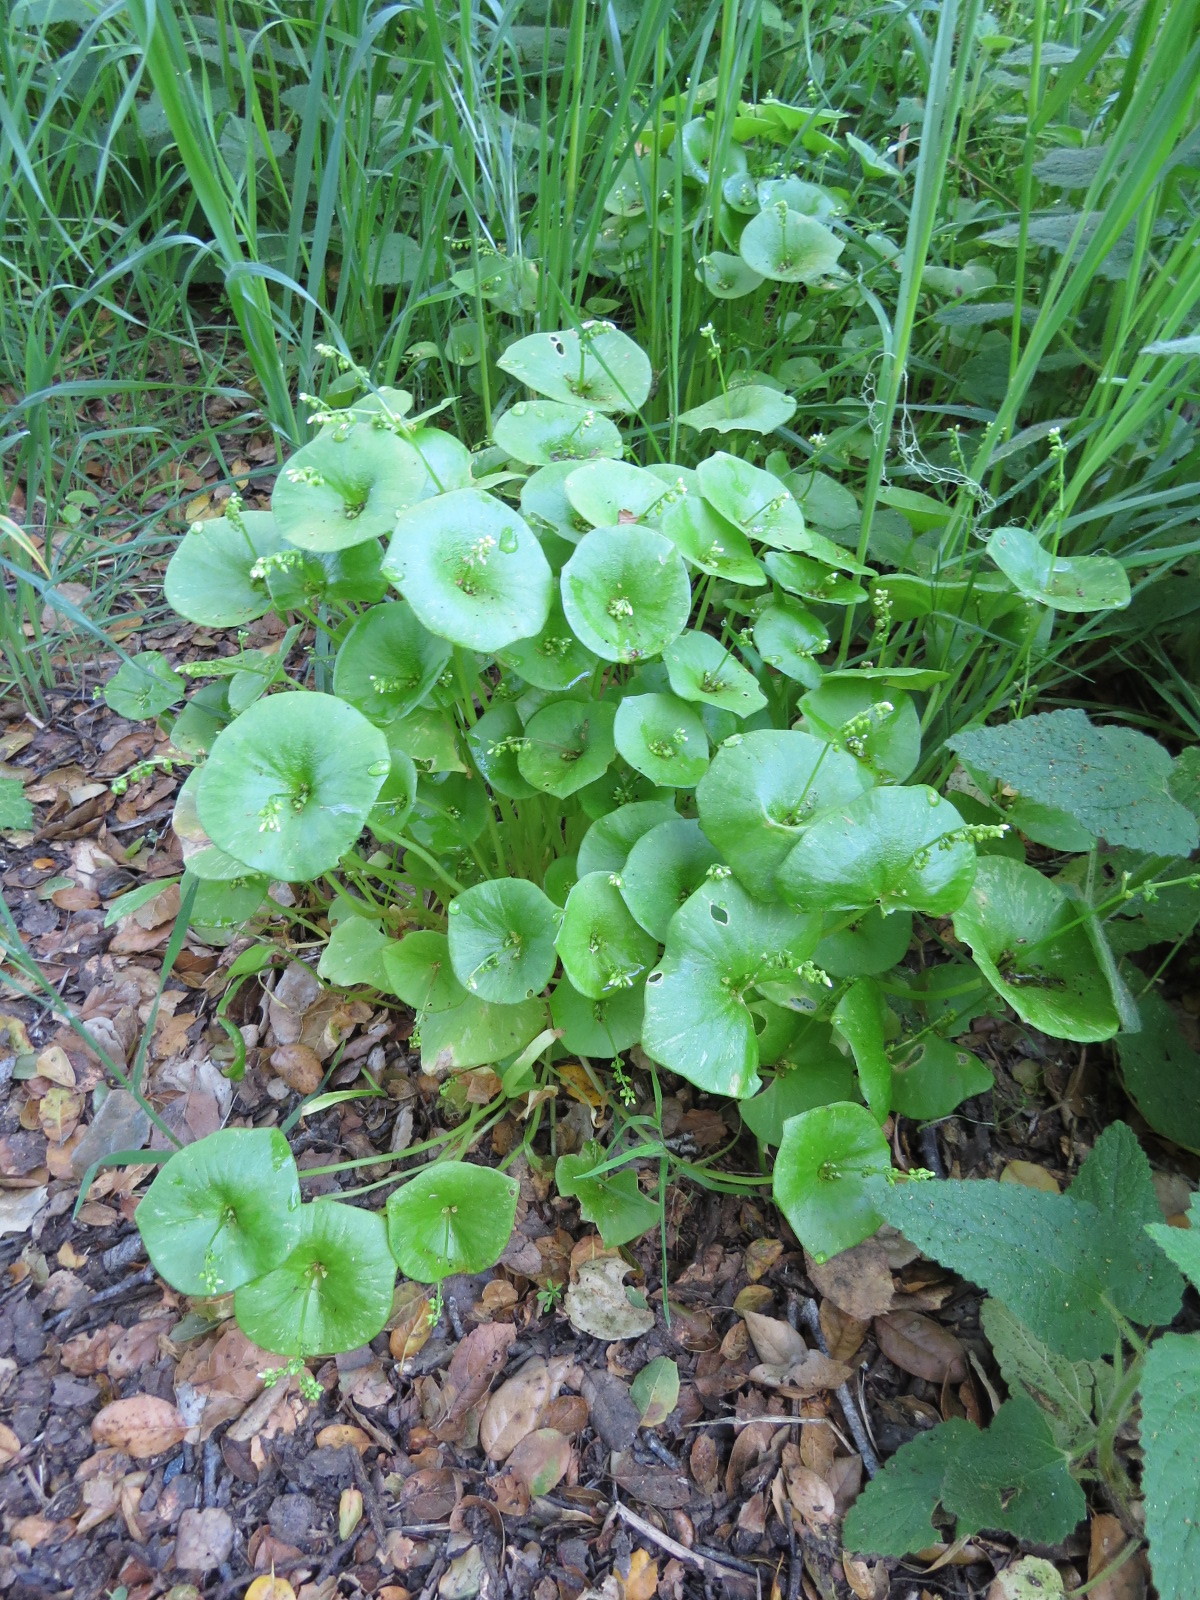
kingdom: Plantae
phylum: Tracheophyta
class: Magnoliopsida
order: Caryophyllales
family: Montiaceae
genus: Claytonia
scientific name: Claytonia perfoliata
